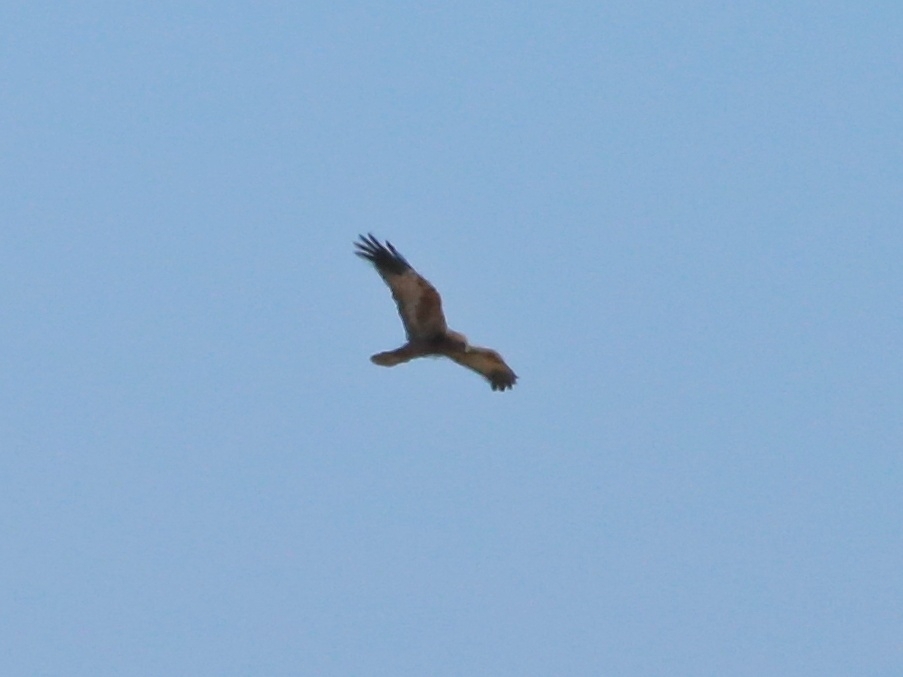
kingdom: Animalia
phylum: Chordata
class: Aves
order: Accipitriformes
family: Accipitridae
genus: Milvus
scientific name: Milvus migrans
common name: Black kite
